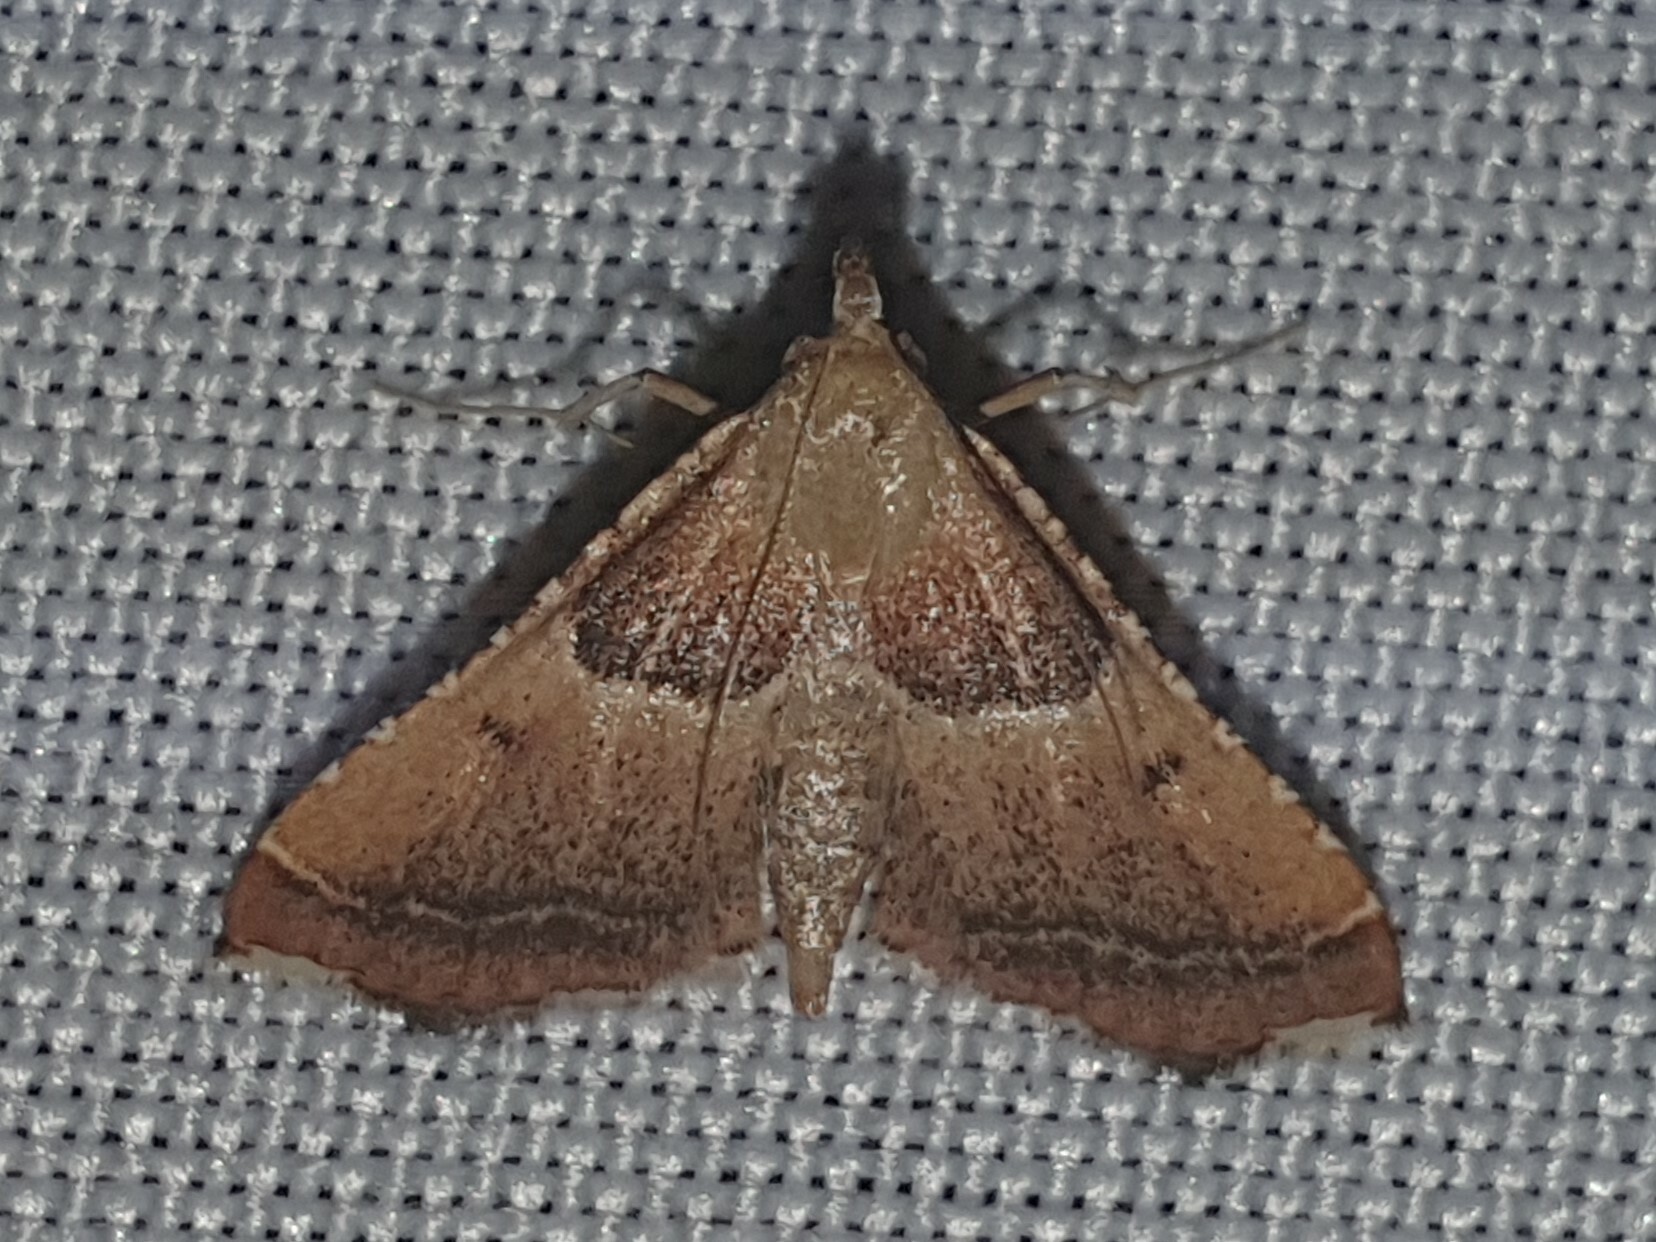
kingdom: Animalia
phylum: Arthropoda
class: Insecta
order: Lepidoptera
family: Pyralidae
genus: Endotricha
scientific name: Endotricha flammealis
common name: Rosy tabby
